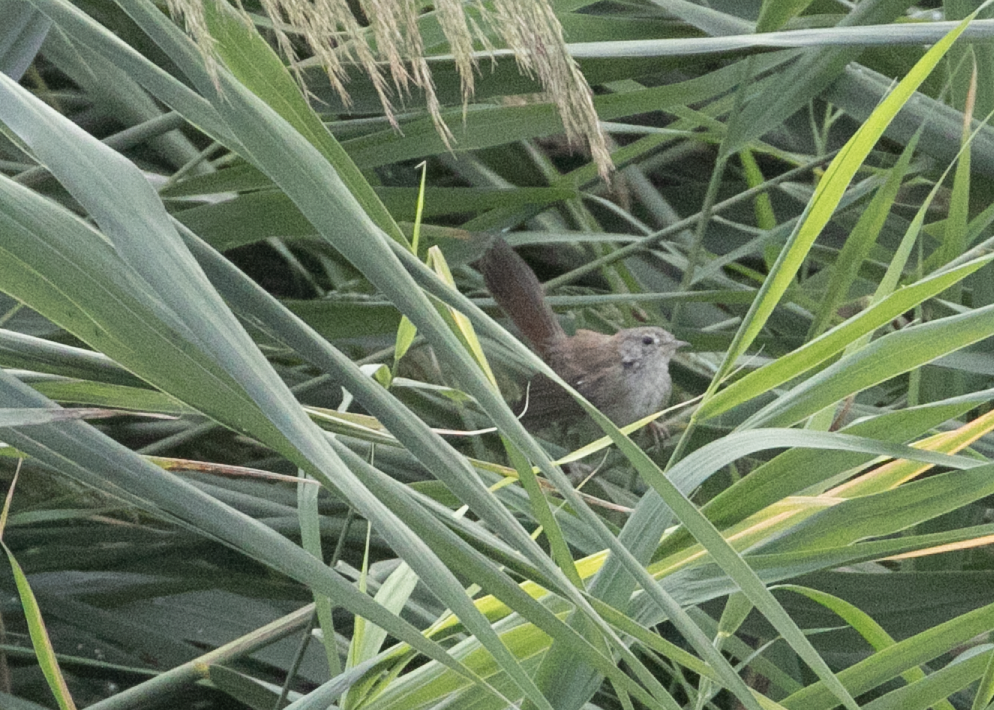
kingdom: Animalia
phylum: Chordata
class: Aves
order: Passeriformes
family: Cettiidae
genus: Cettia
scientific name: Cettia cetti
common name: Cetti's warbler
